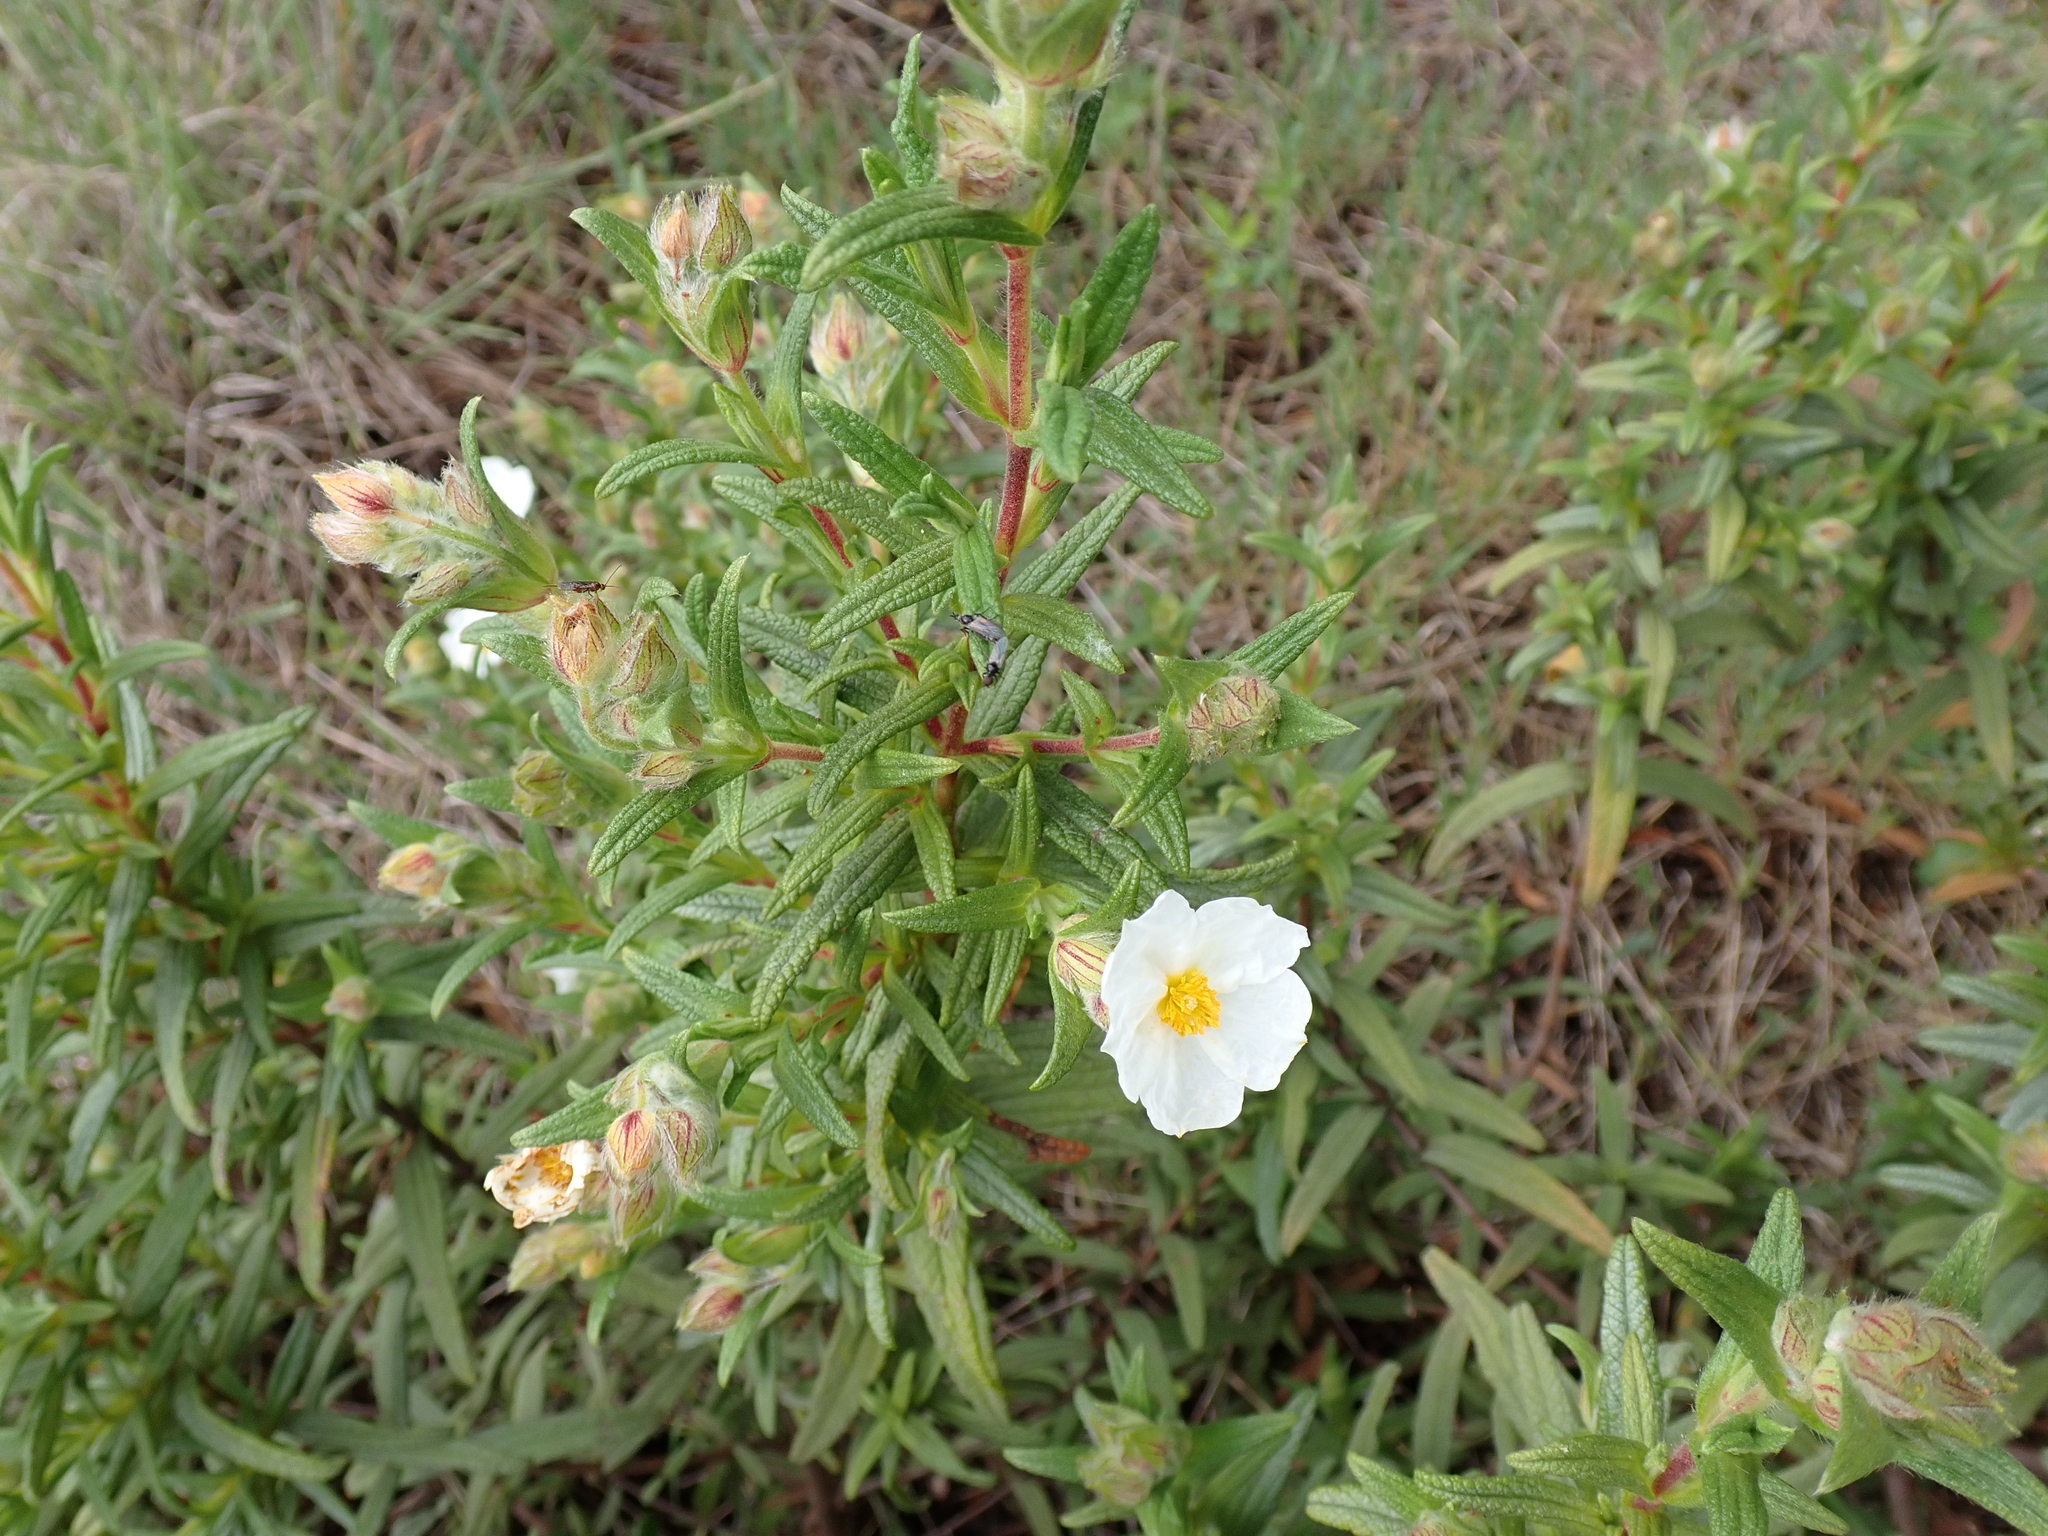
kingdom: Plantae
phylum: Tracheophyta
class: Magnoliopsida
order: Malvales
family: Cistaceae
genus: Cistus
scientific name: Cistus monspeliensis
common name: Montpelier cistus
